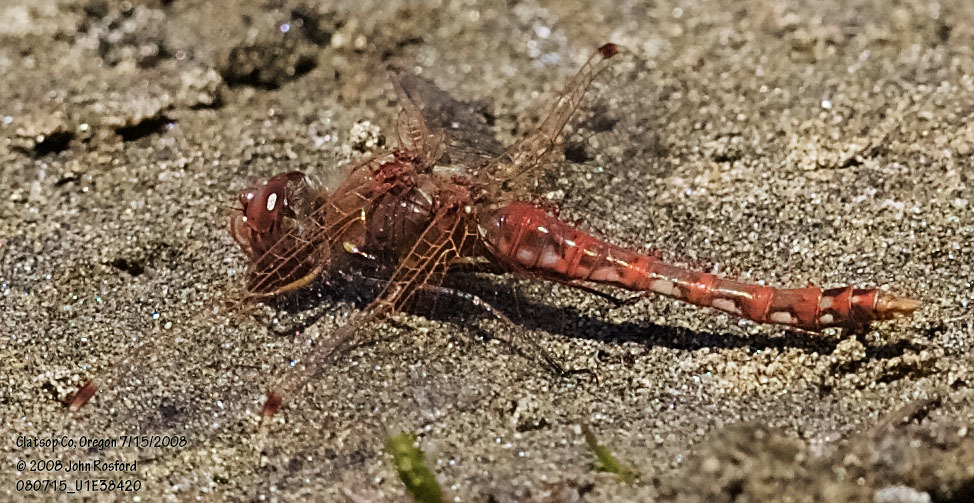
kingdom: Animalia
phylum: Arthropoda
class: Insecta
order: Odonata
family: Libellulidae
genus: Sympetrum
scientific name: Sympetrum corruptum
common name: Variegated meadowhawk
